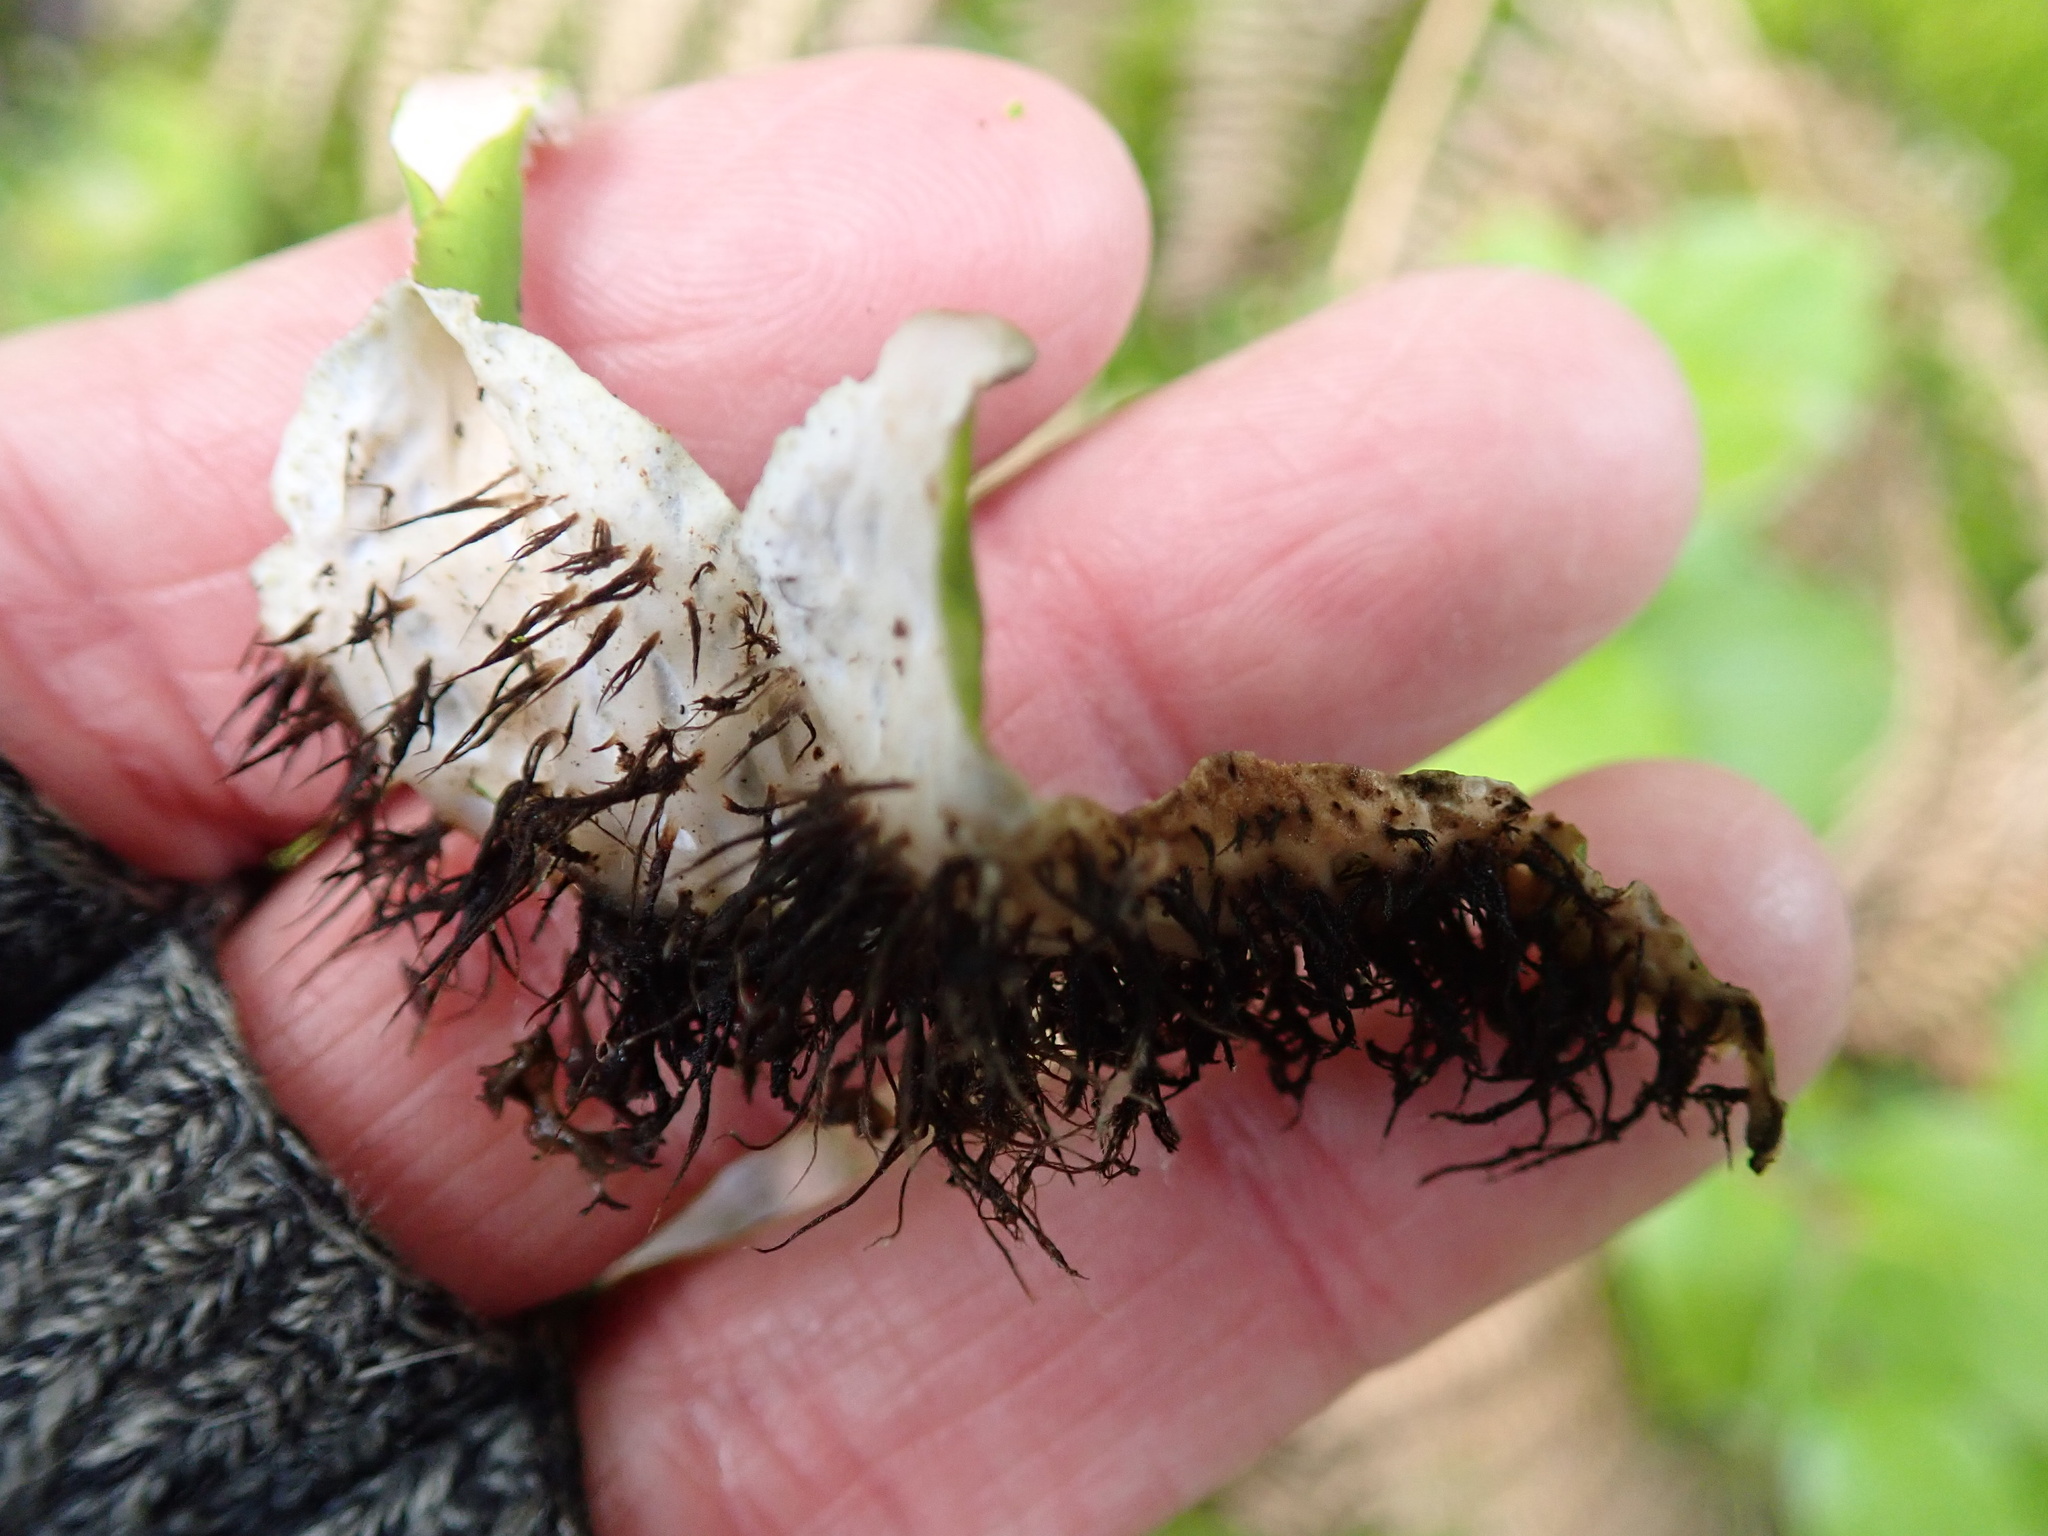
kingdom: Fungi
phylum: Ascomycota
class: Lecanoromycetes
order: Peltigerales
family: Peltigeraceae
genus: Peltigera
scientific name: Peltigera britannica
